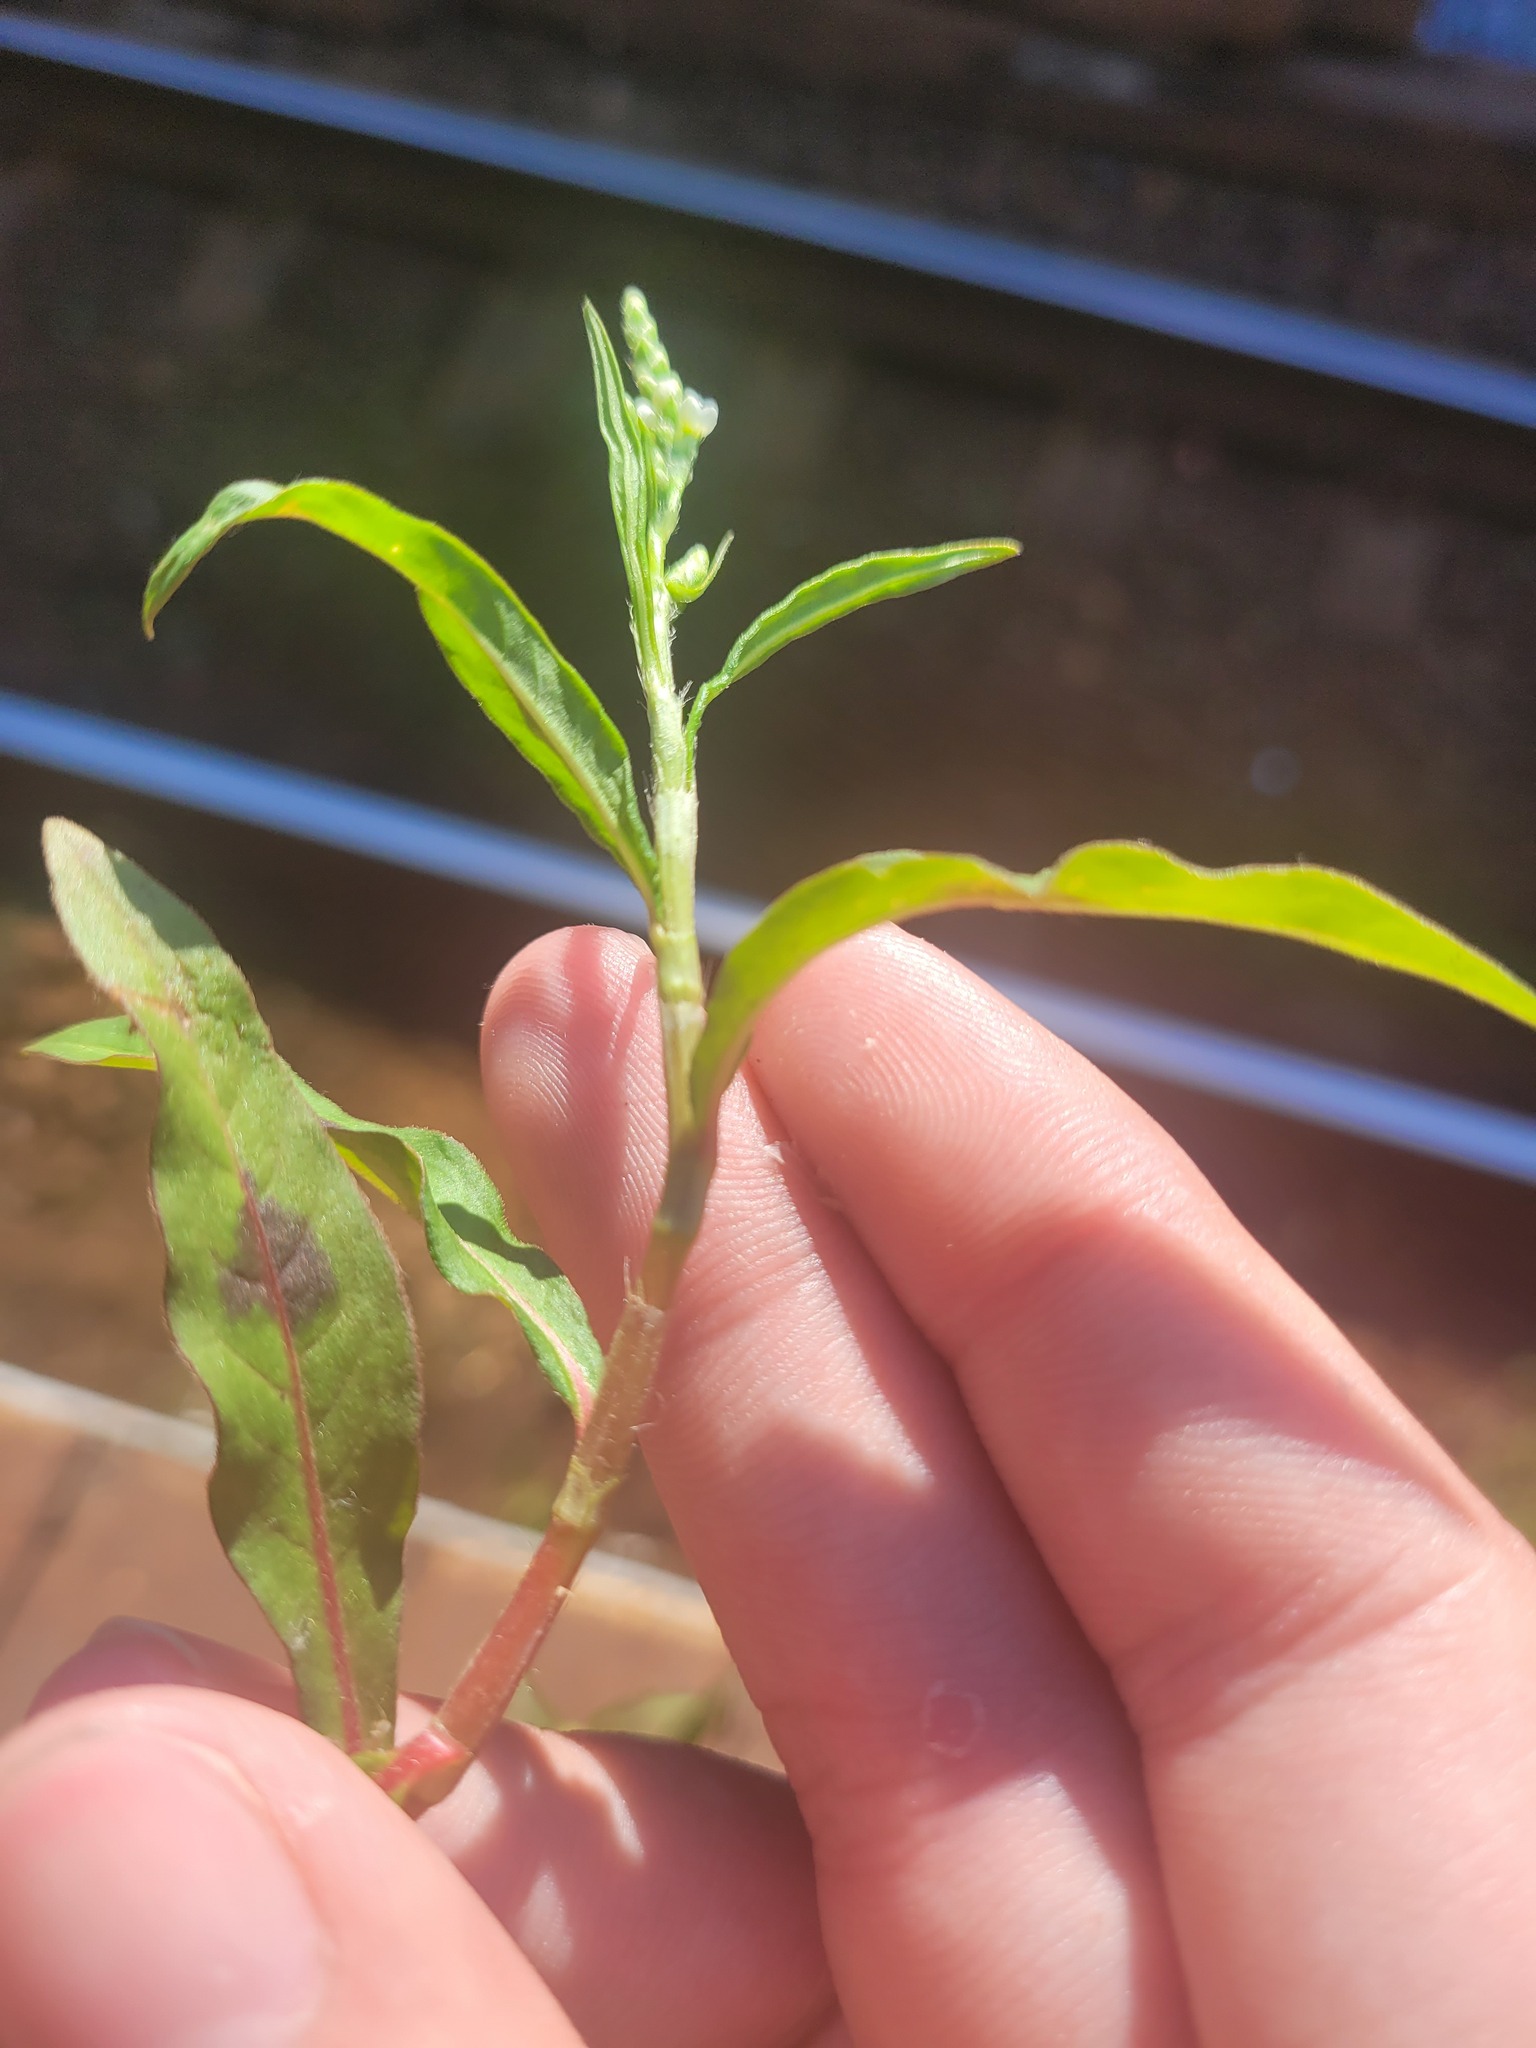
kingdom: Plantae
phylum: Tracheophyta
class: Magnoliopsida
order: Caryophyllales
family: Polygonaceae
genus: Persicaria
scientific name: Persicaria maculosa
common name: Redshank
